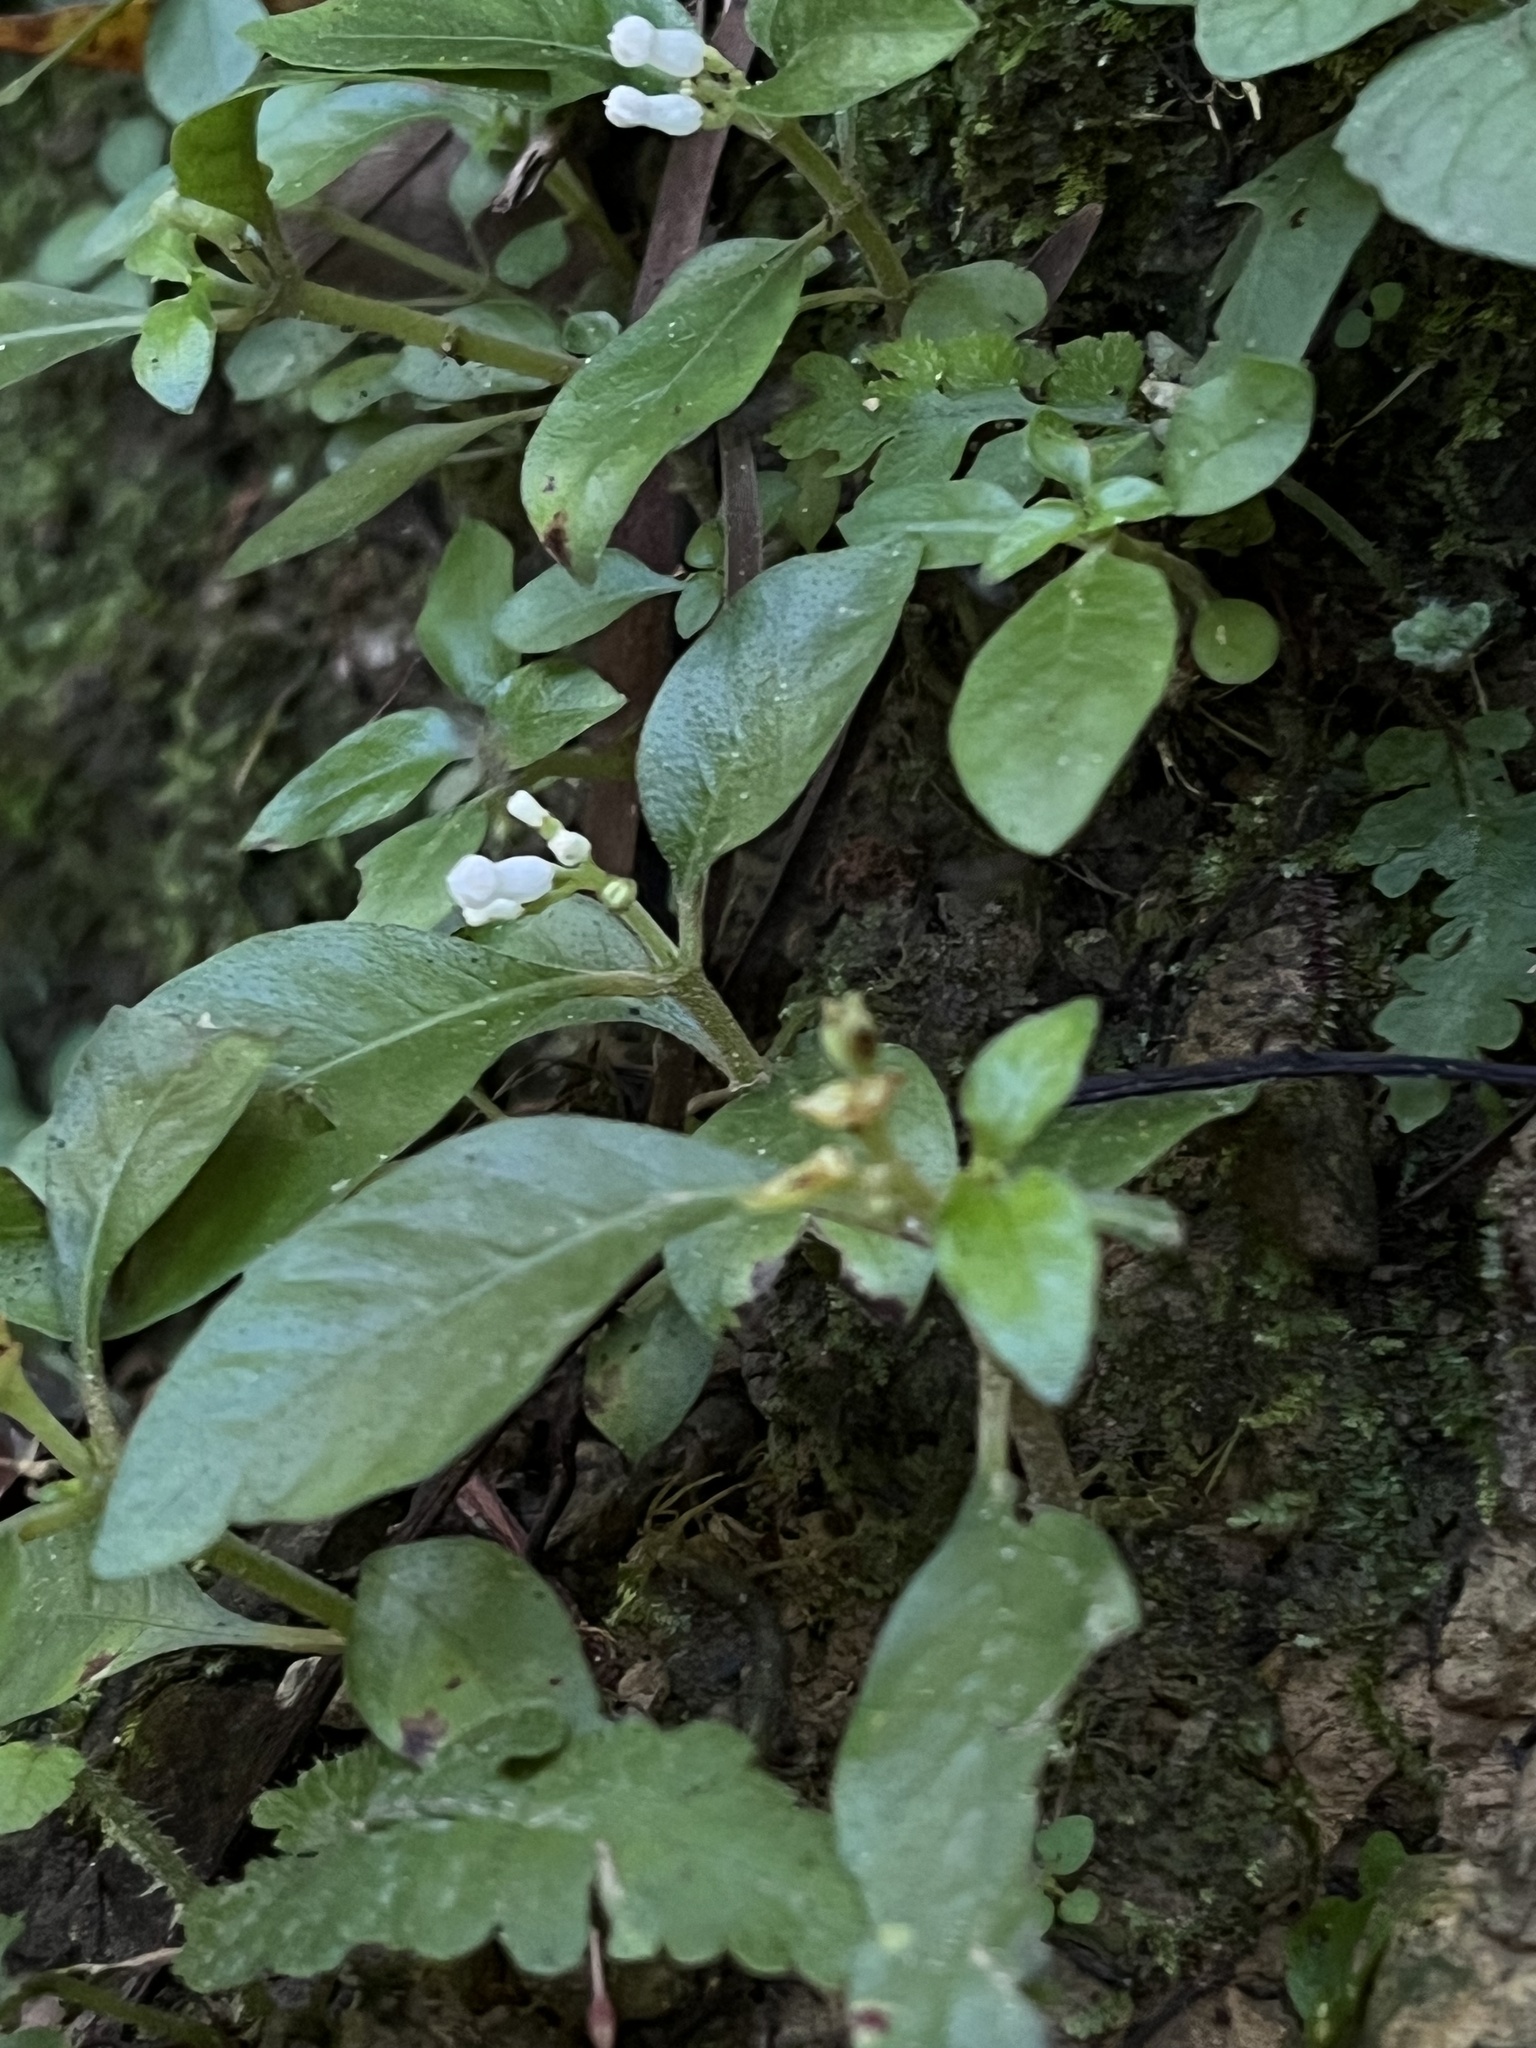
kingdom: Plantae
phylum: Tracheophyta
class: Magnoliopsida
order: Gentianales
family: Rubiaceae
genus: Ophiorrhiza
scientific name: Ophiorrhiza pumila
